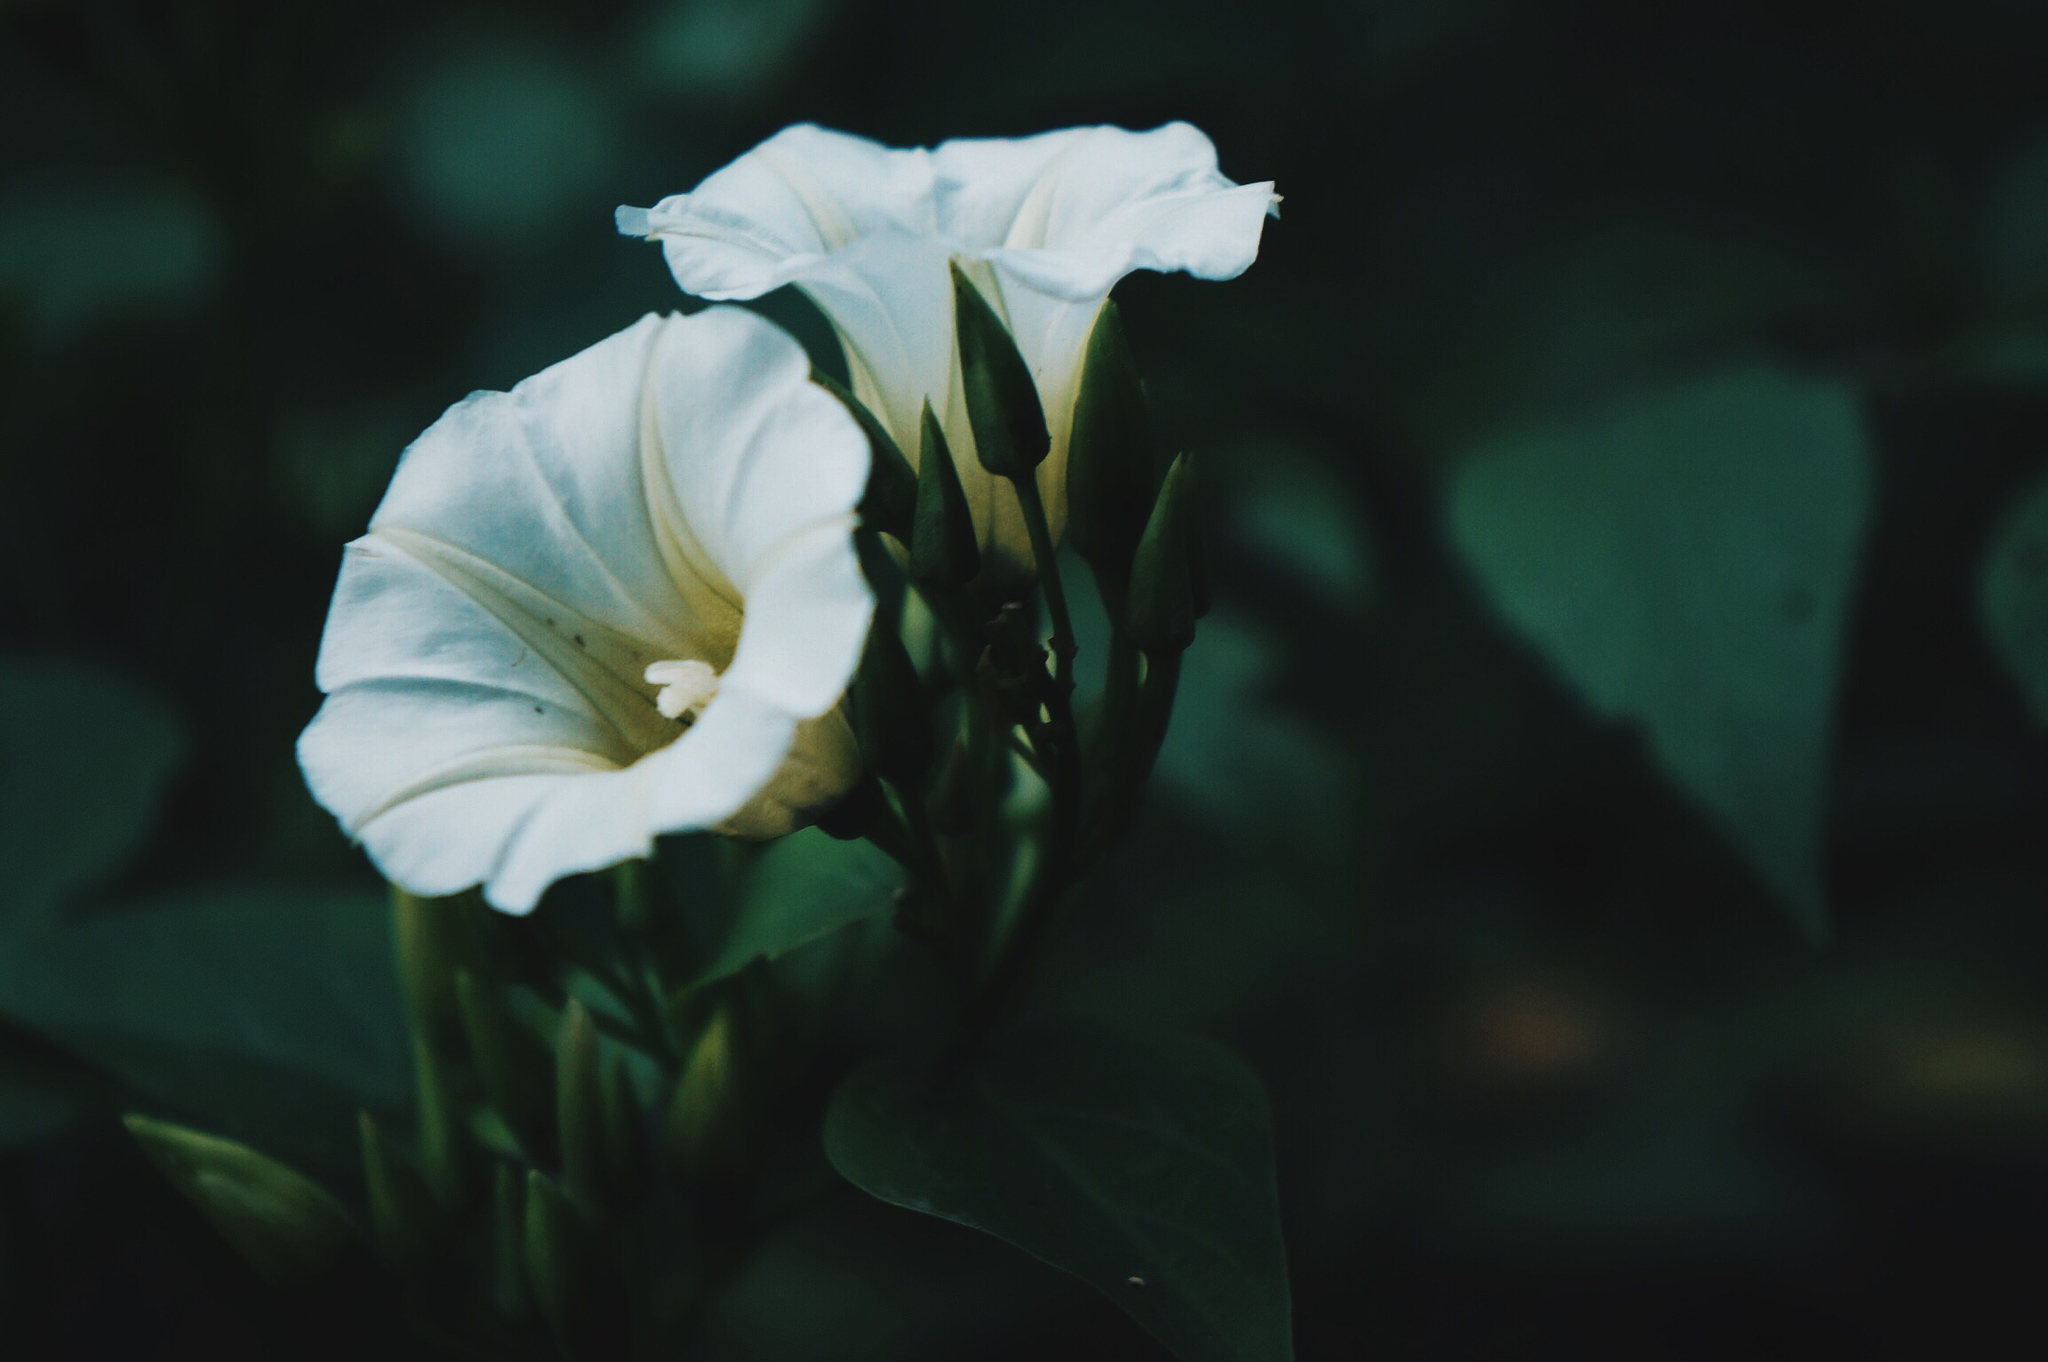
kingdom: Plantae
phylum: Tracheophyta
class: Magnoliopsida
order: Solanales
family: Convolvulaceae
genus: Ipomoea
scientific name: Ipomoea corymbosa
